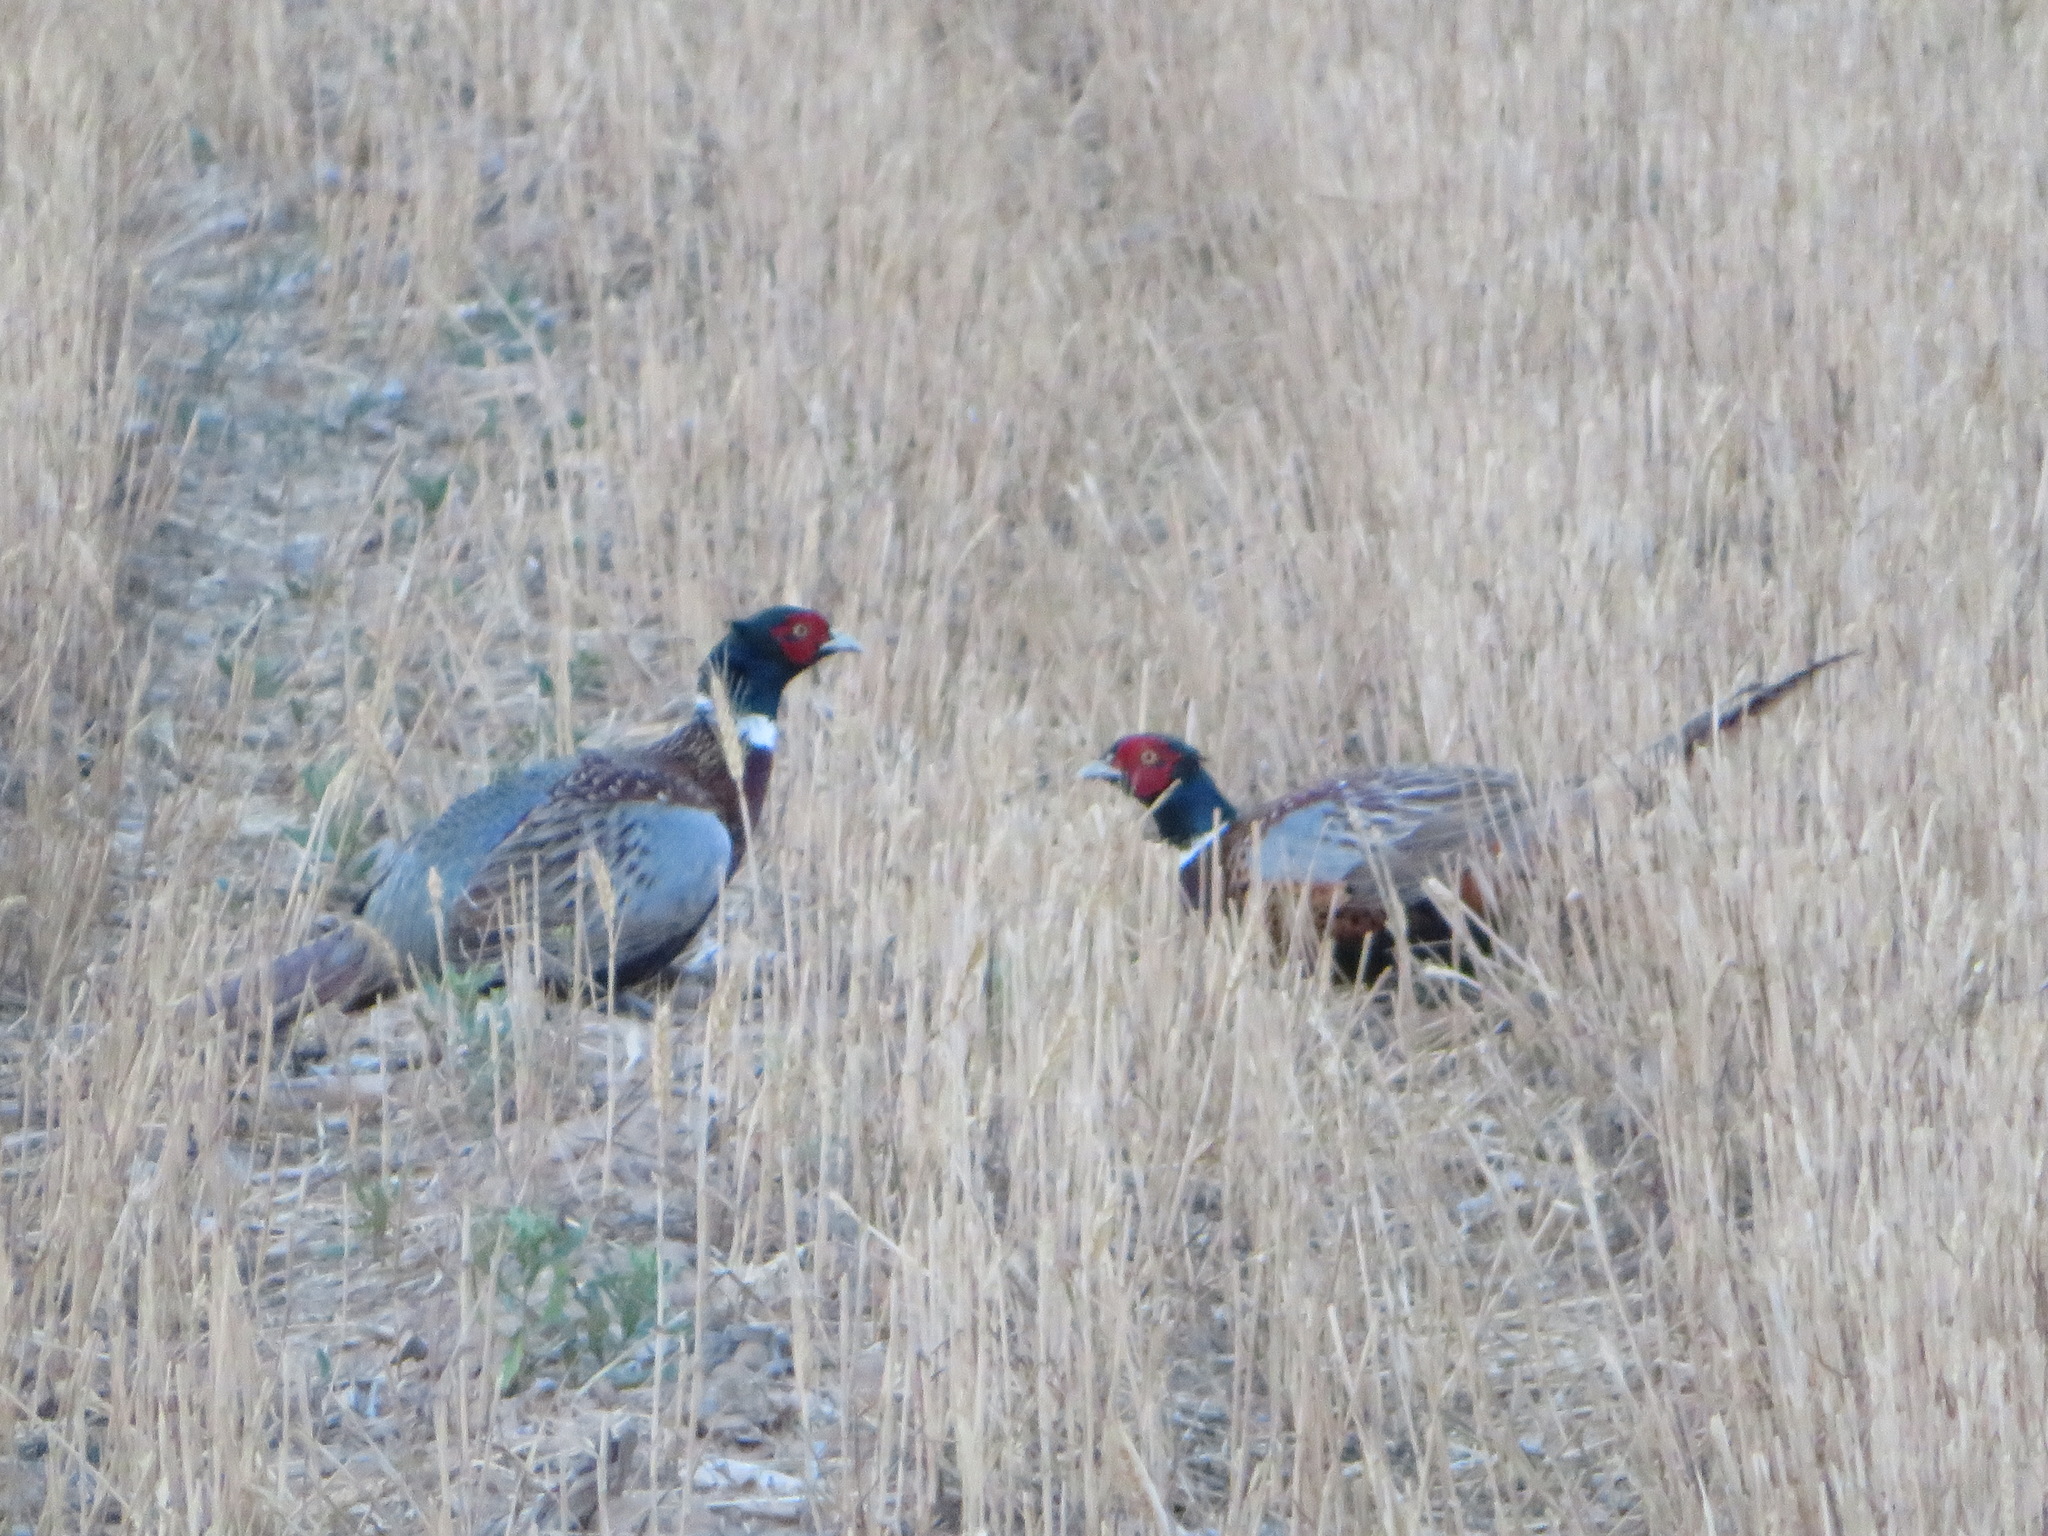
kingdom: Animalia
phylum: Chordata
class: Aves
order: Galliformes
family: Phasianidae
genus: Phasianus
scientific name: Phasianus colchicus
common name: Common pheasant
